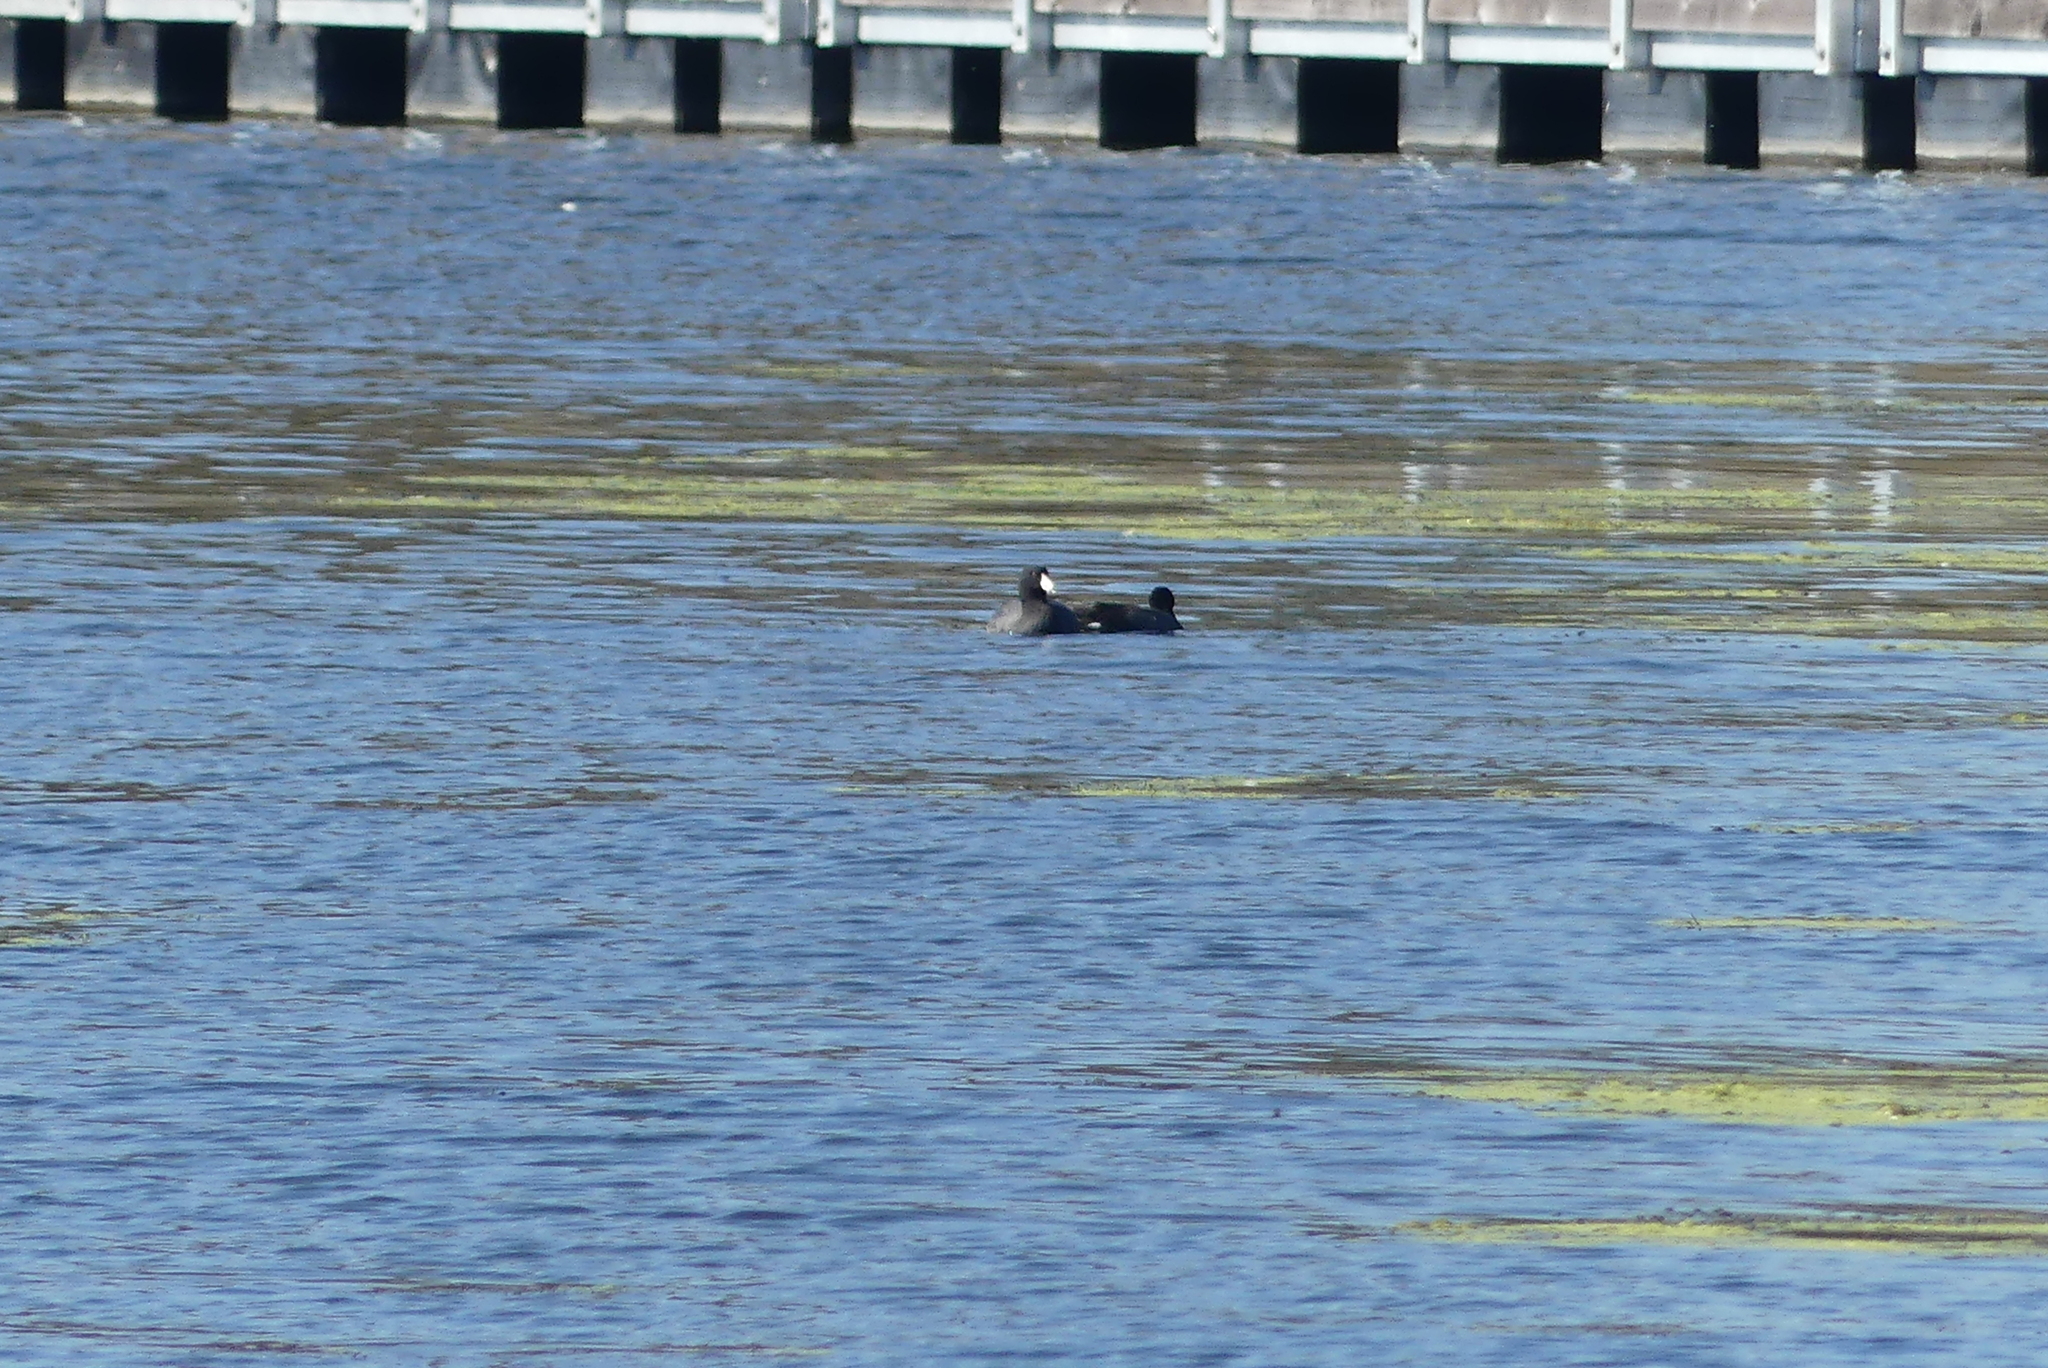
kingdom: Animalia
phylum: Chordata
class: Aves
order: Gruiformes
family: Rallidae
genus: Fulica
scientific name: Fulica americana
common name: American coot
